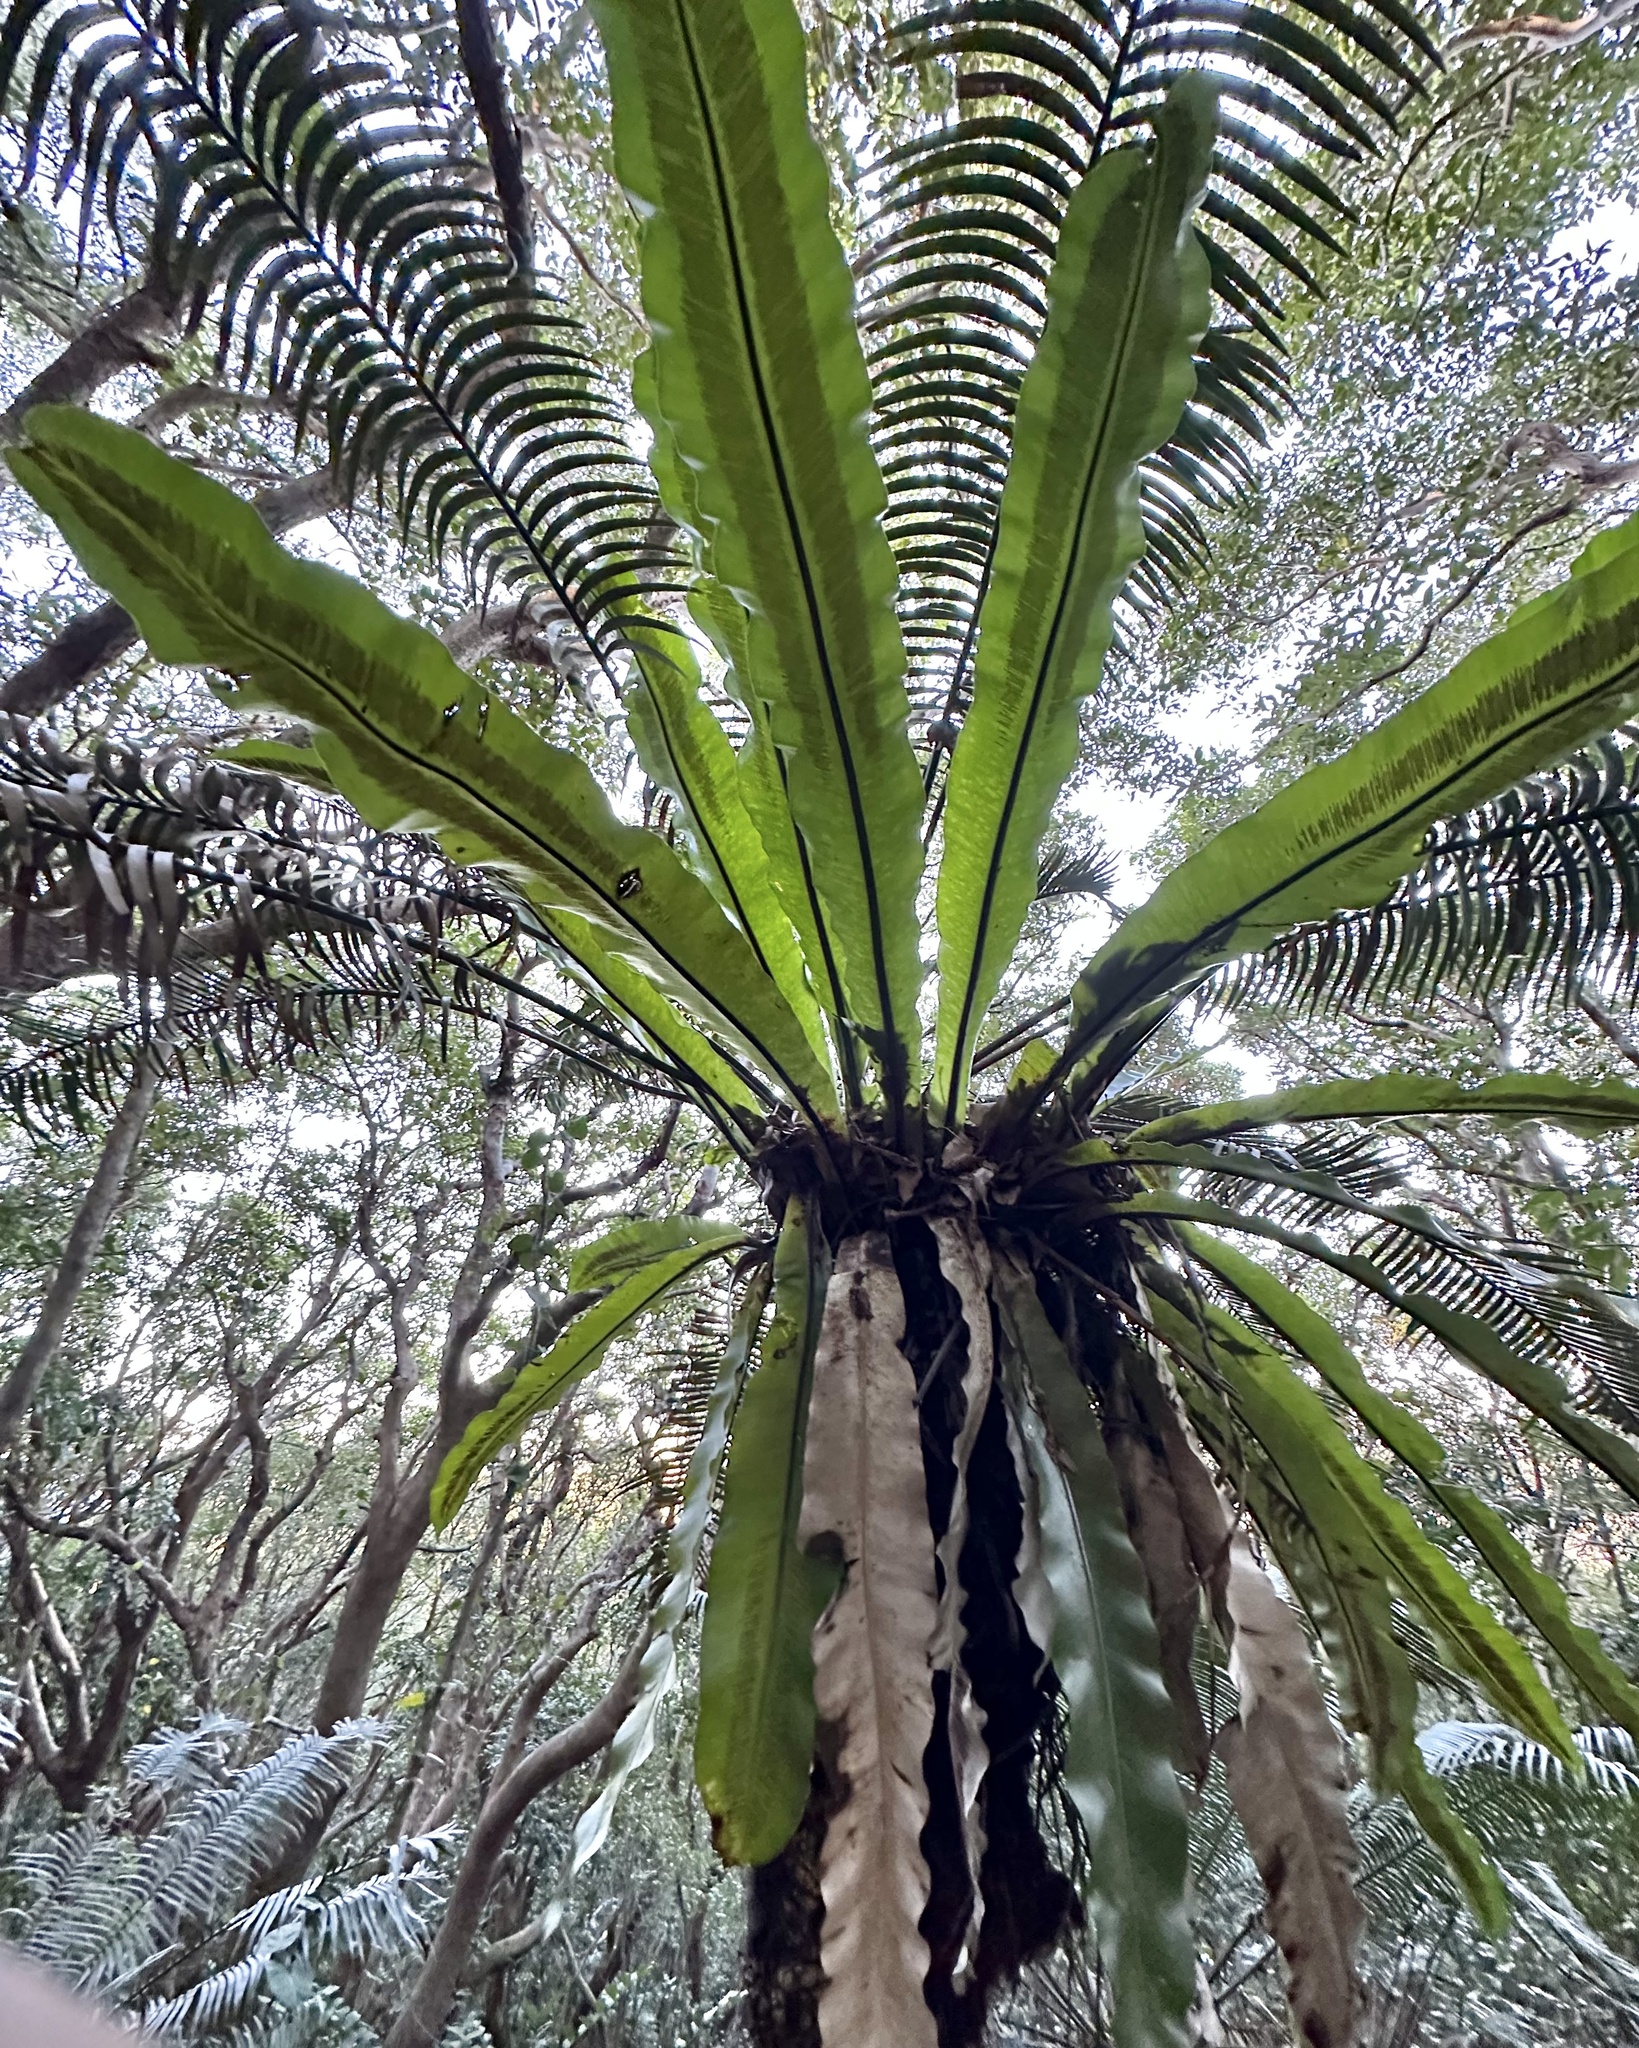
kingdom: Plantae
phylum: Tracheophyta
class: Polypodiopsida
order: Polypodiales
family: Aspleniaceae
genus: Asplenium
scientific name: Asplenium australasicum
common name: Bird's-nest fern
